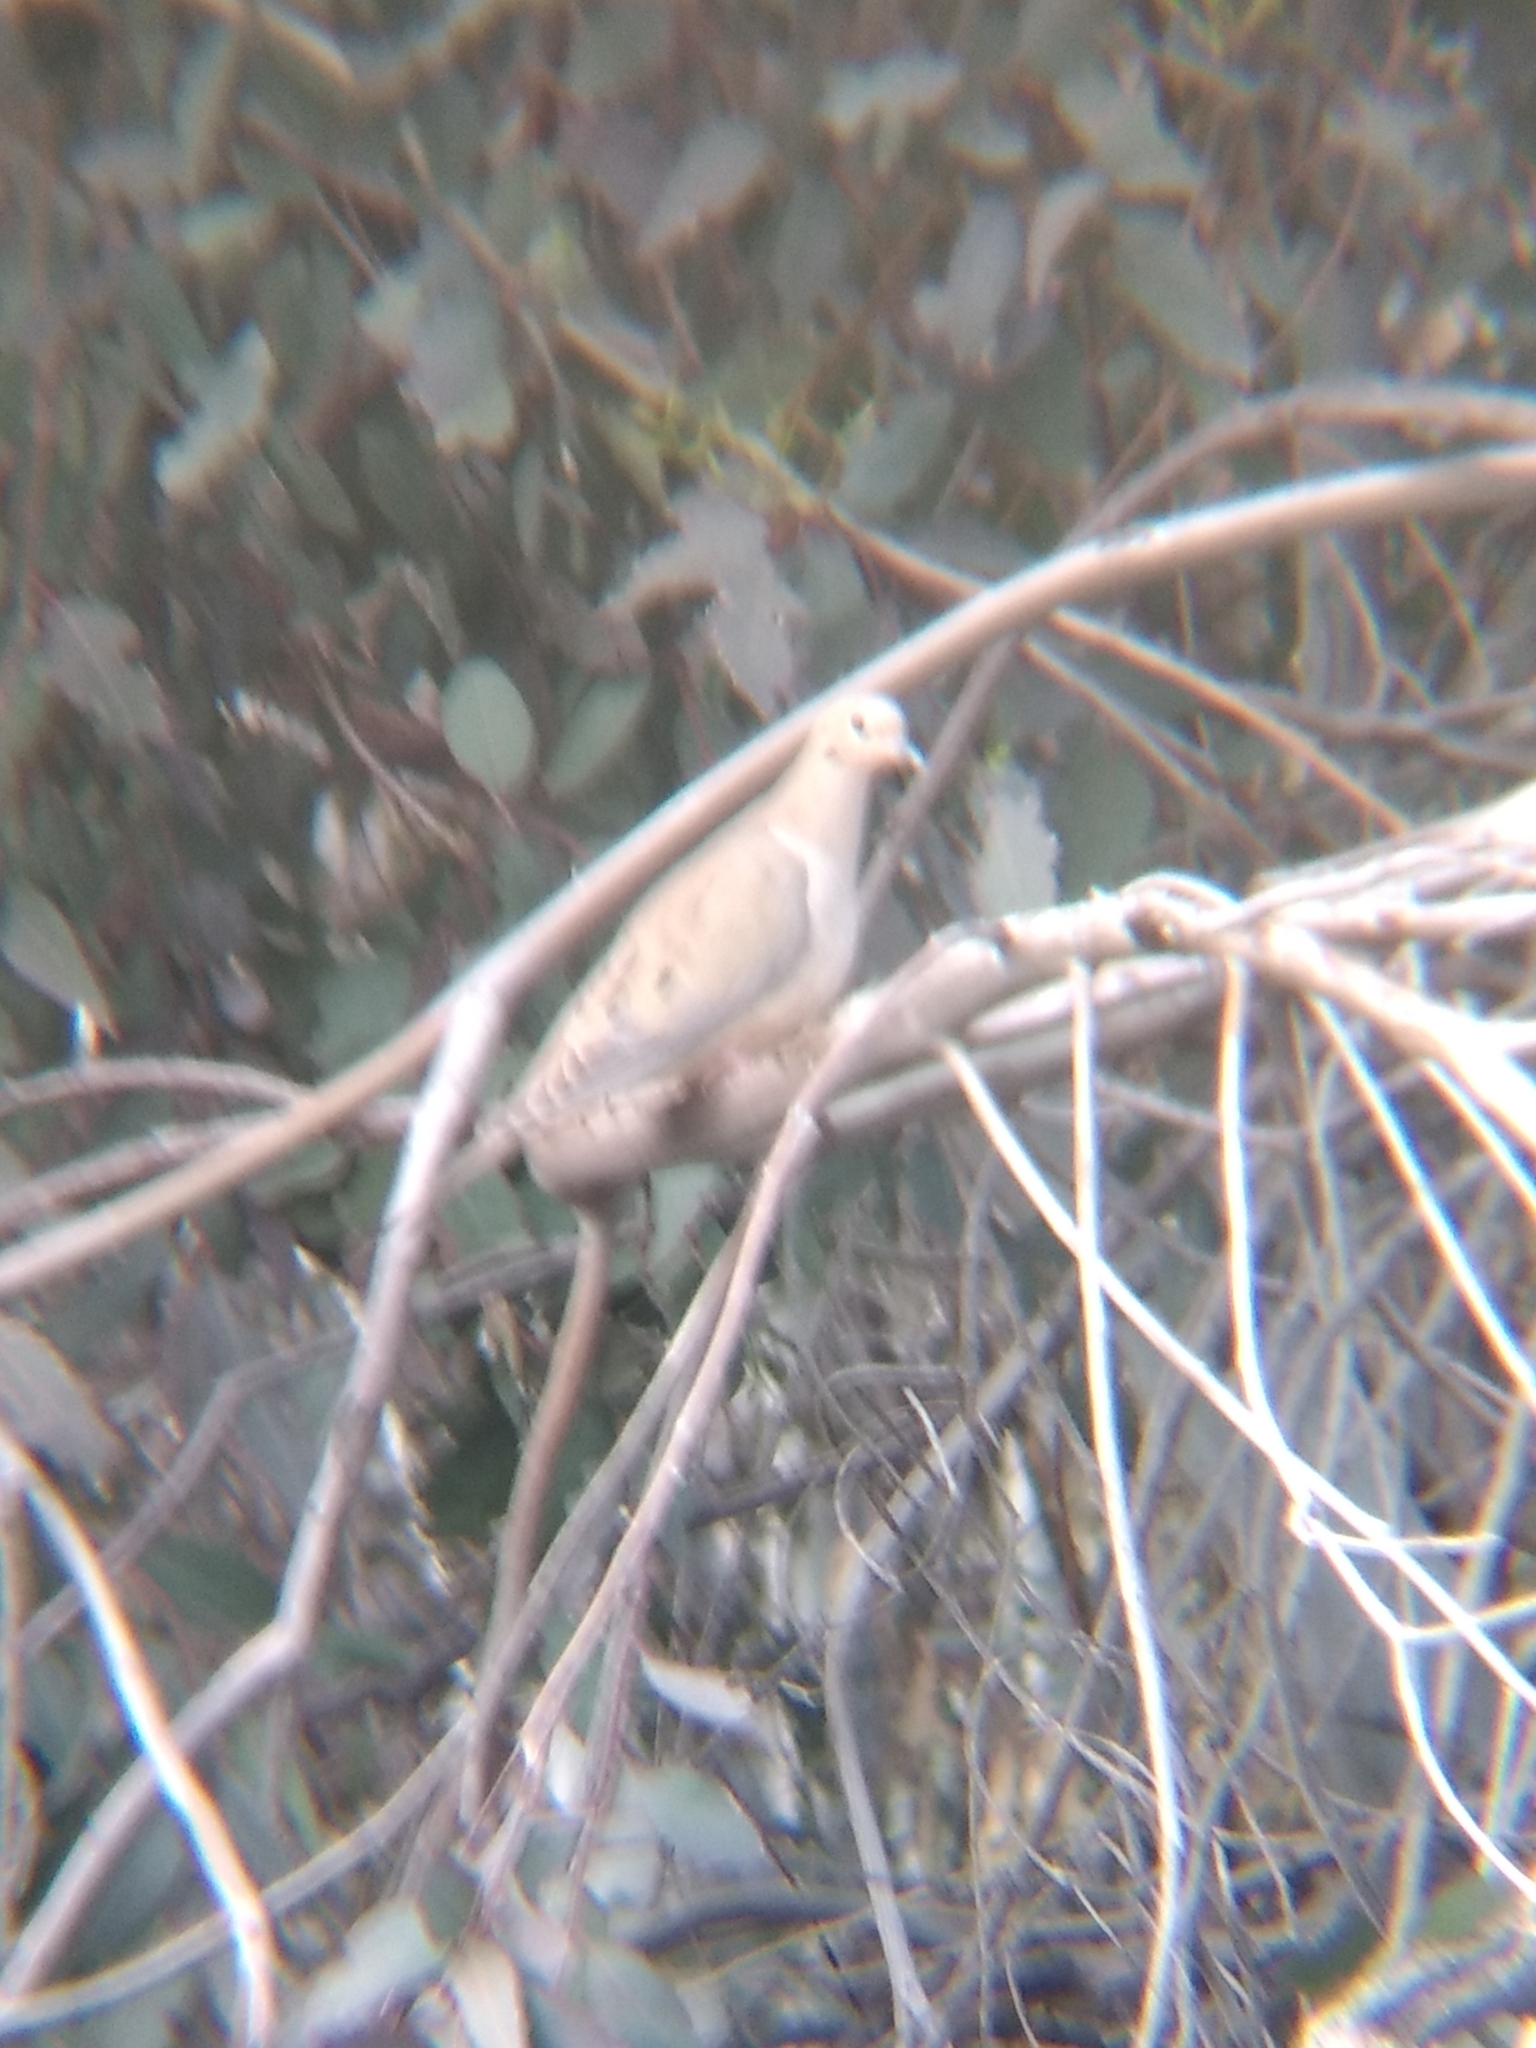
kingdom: Animalia
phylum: Chordata
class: Aves
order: Columbiformes
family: Columbidae
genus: Zenaida
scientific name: Zenaida macroura
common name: Mourning dove
